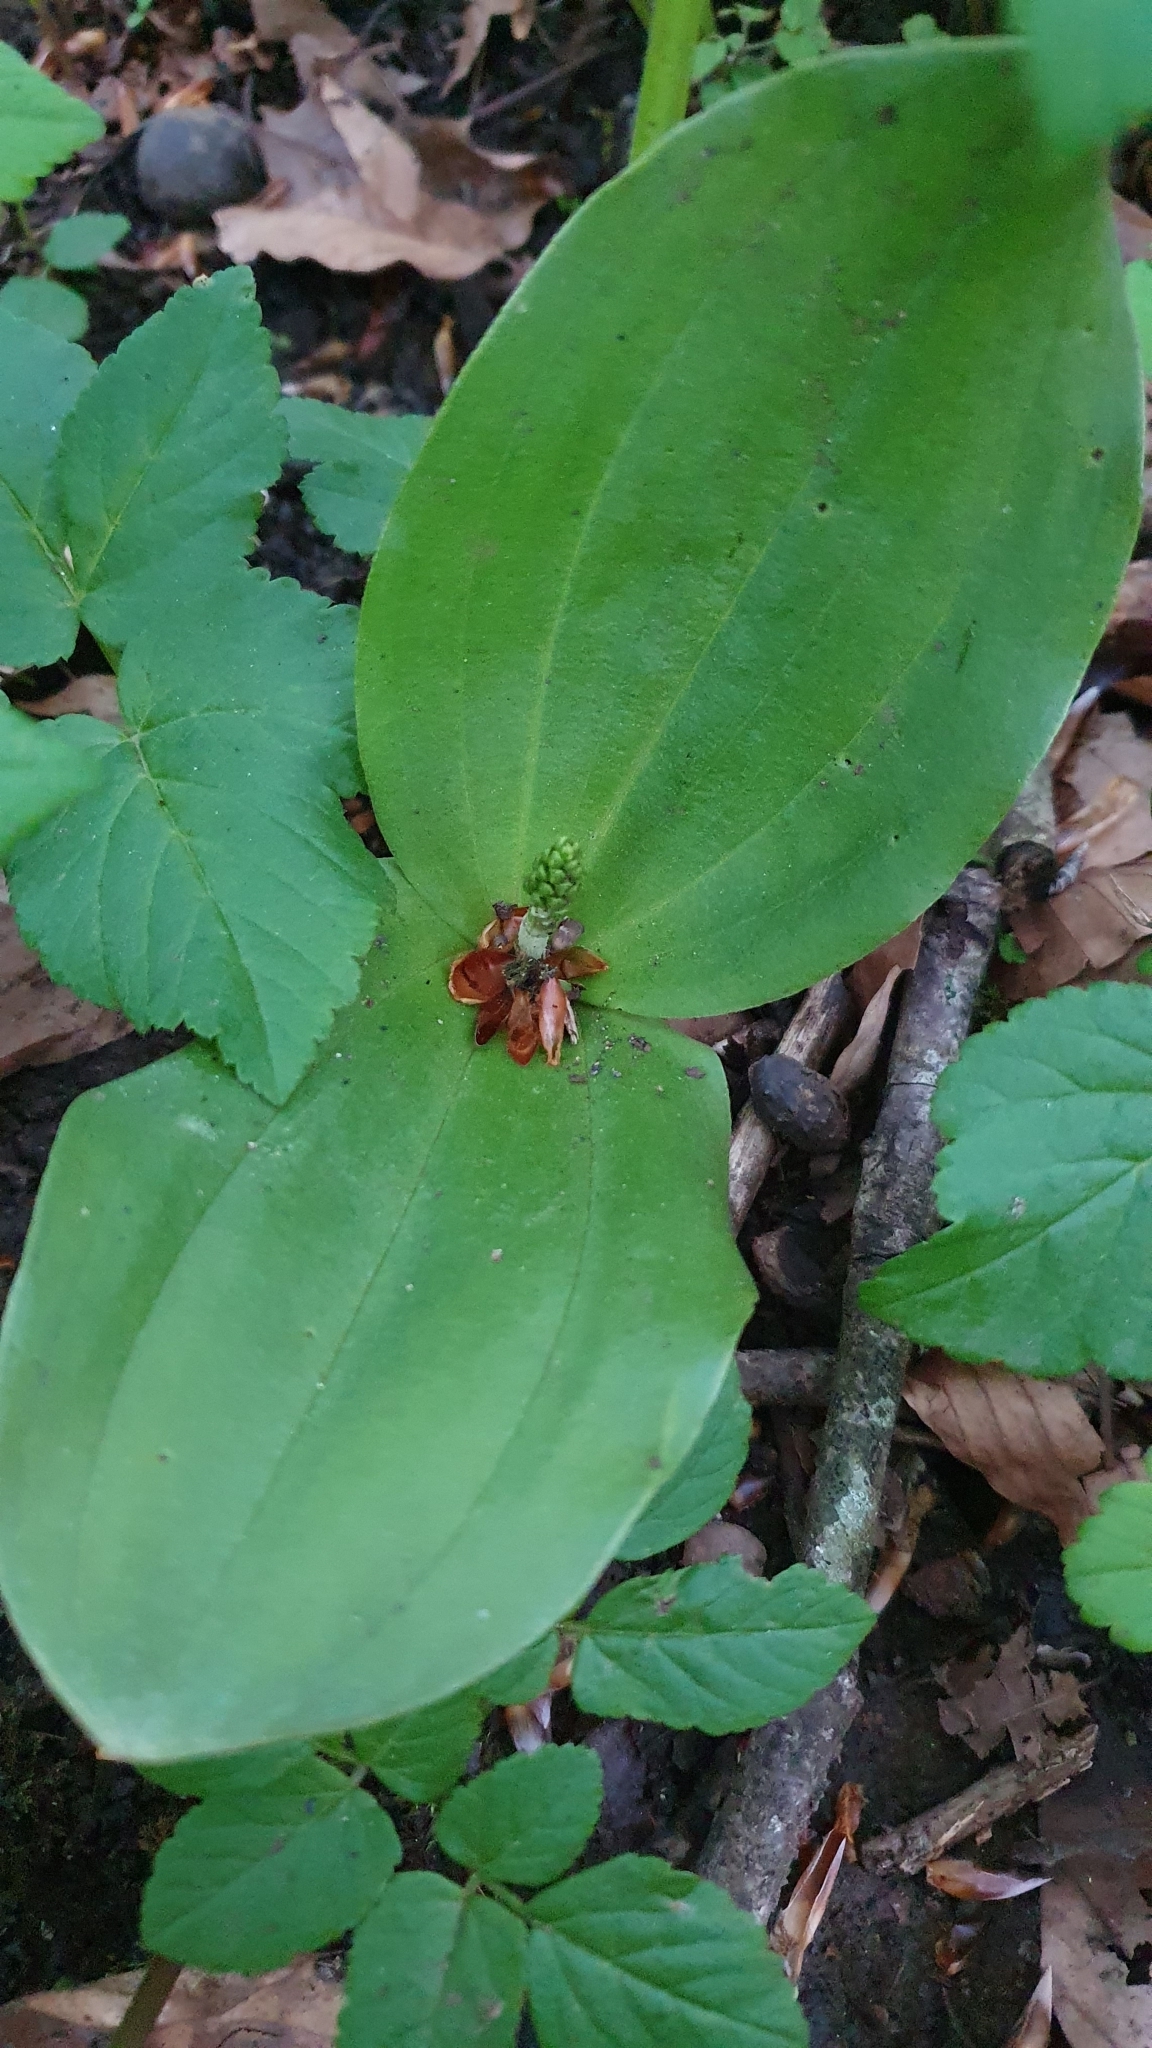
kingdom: Plantae
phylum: Tracheophyta
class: Liliopsida
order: Asparagales
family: Orchidaceae
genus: Neottia
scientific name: Neottia ovata
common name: Common twayblade
